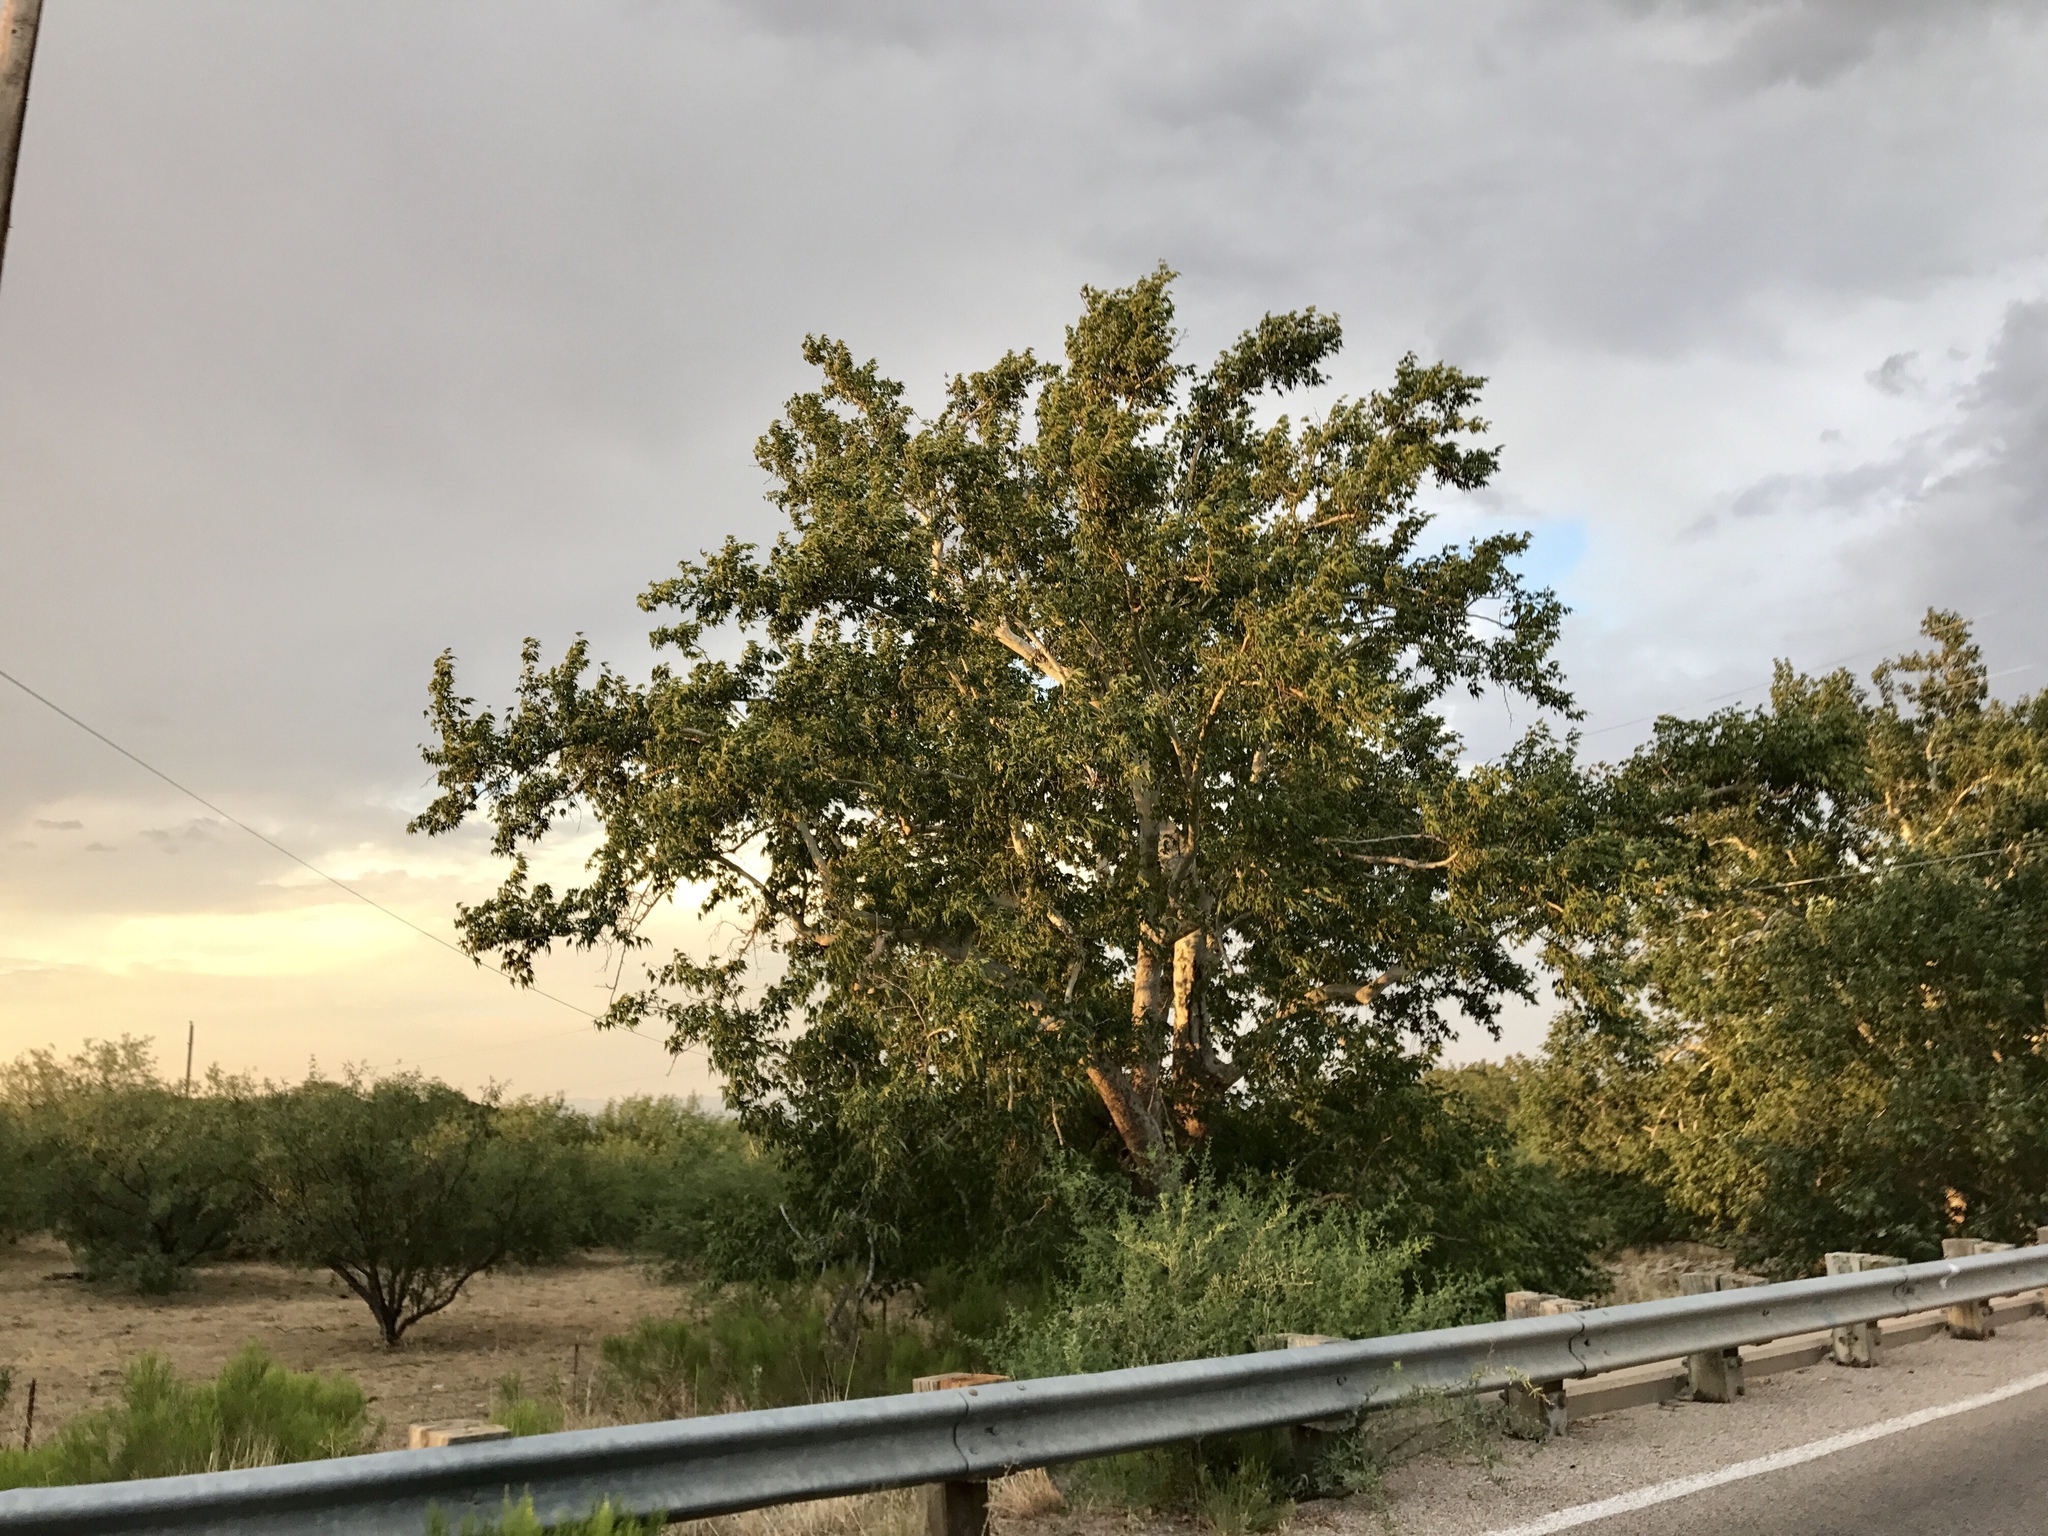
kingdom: Plantae
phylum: Tracheophyta
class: Magnoliopsida
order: Proteales
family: Platanaceae
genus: Platanus
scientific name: Platanus wrightii
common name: Arizona sycamore
